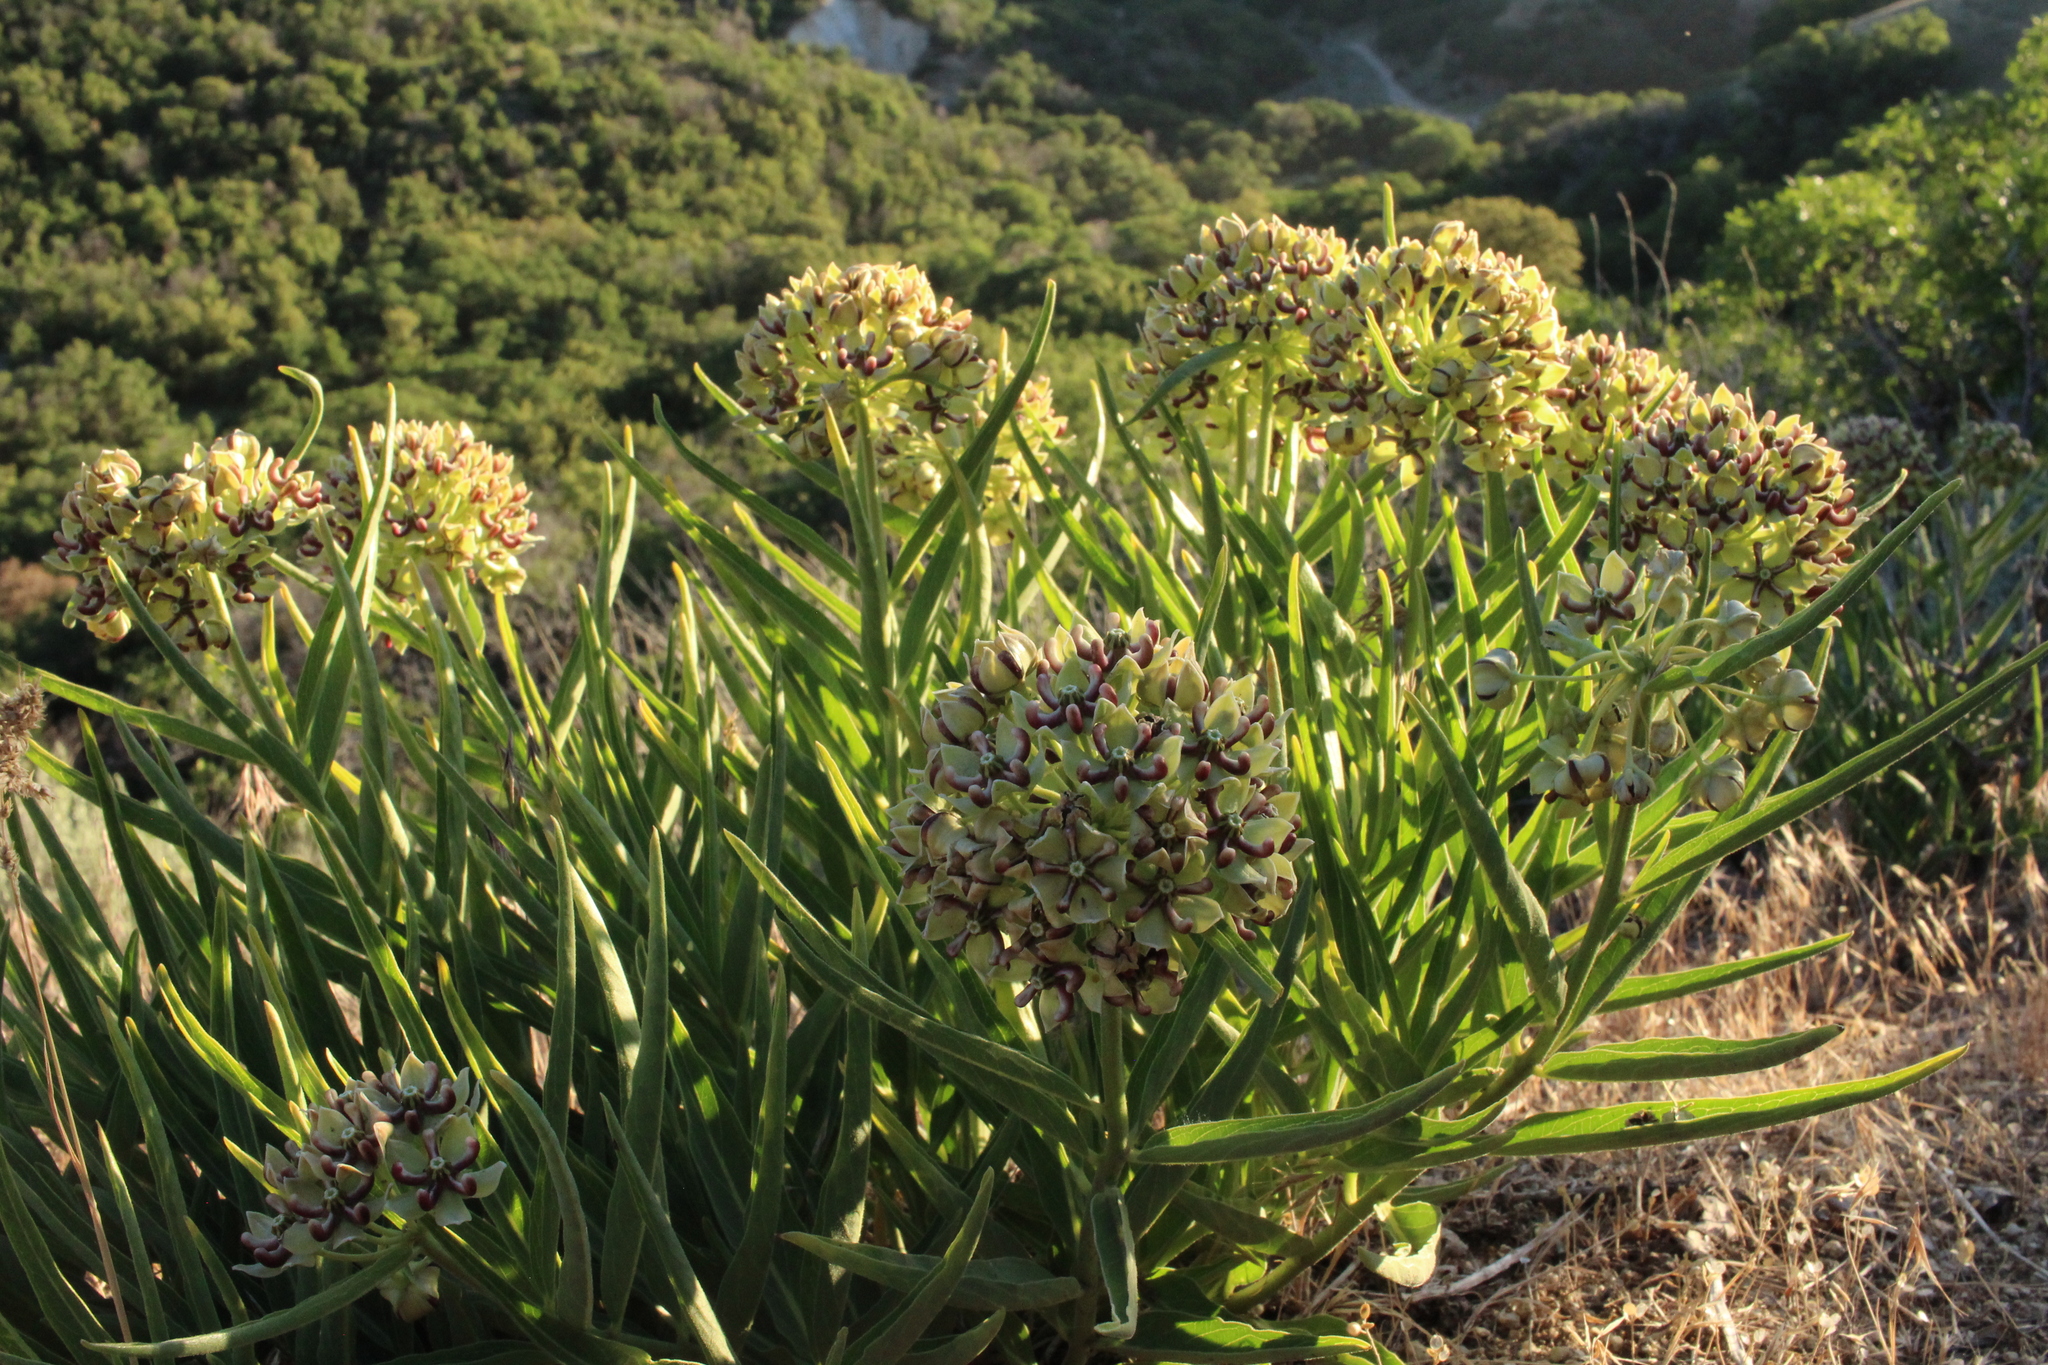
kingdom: Plantae
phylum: Tracheophyta
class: Magnoliopsida
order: Gentianales
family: Apocynaceae
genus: Asclepias
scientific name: Asclepias asperula
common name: Antelope horns
